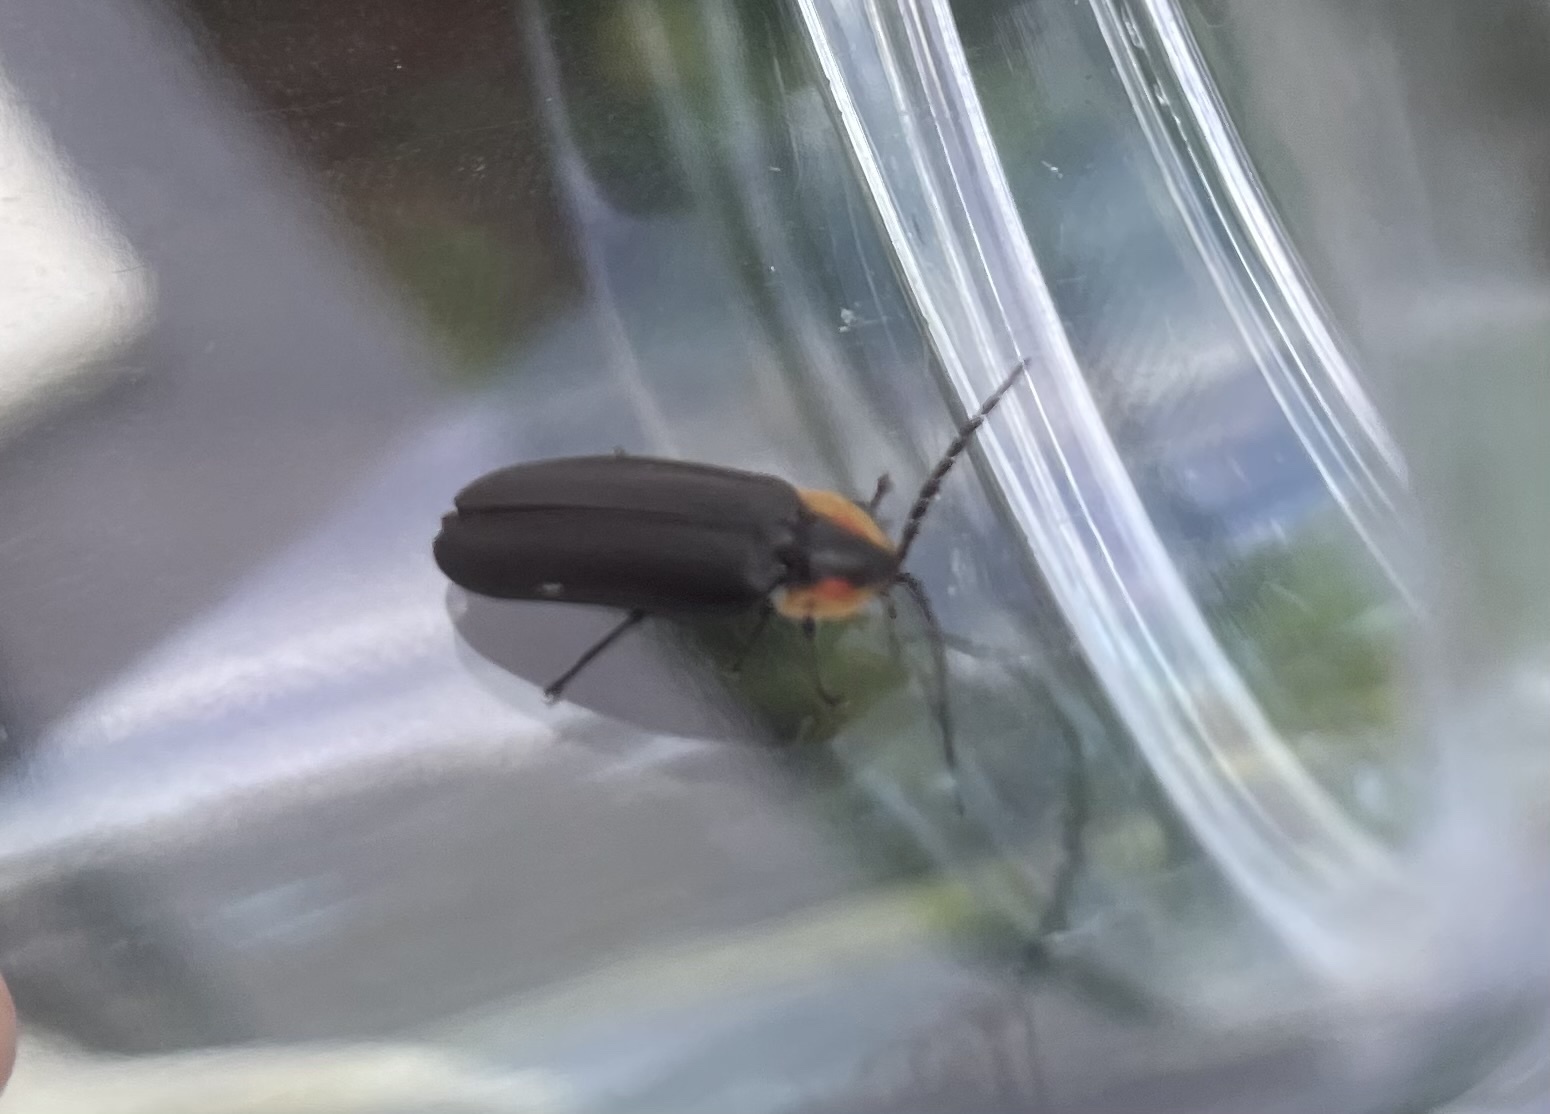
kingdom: Animalia
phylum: Arthropoda
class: Insecta
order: Coleoptera
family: Lampyridae
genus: Lucidota
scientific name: Lucidota atra
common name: Black firefly
